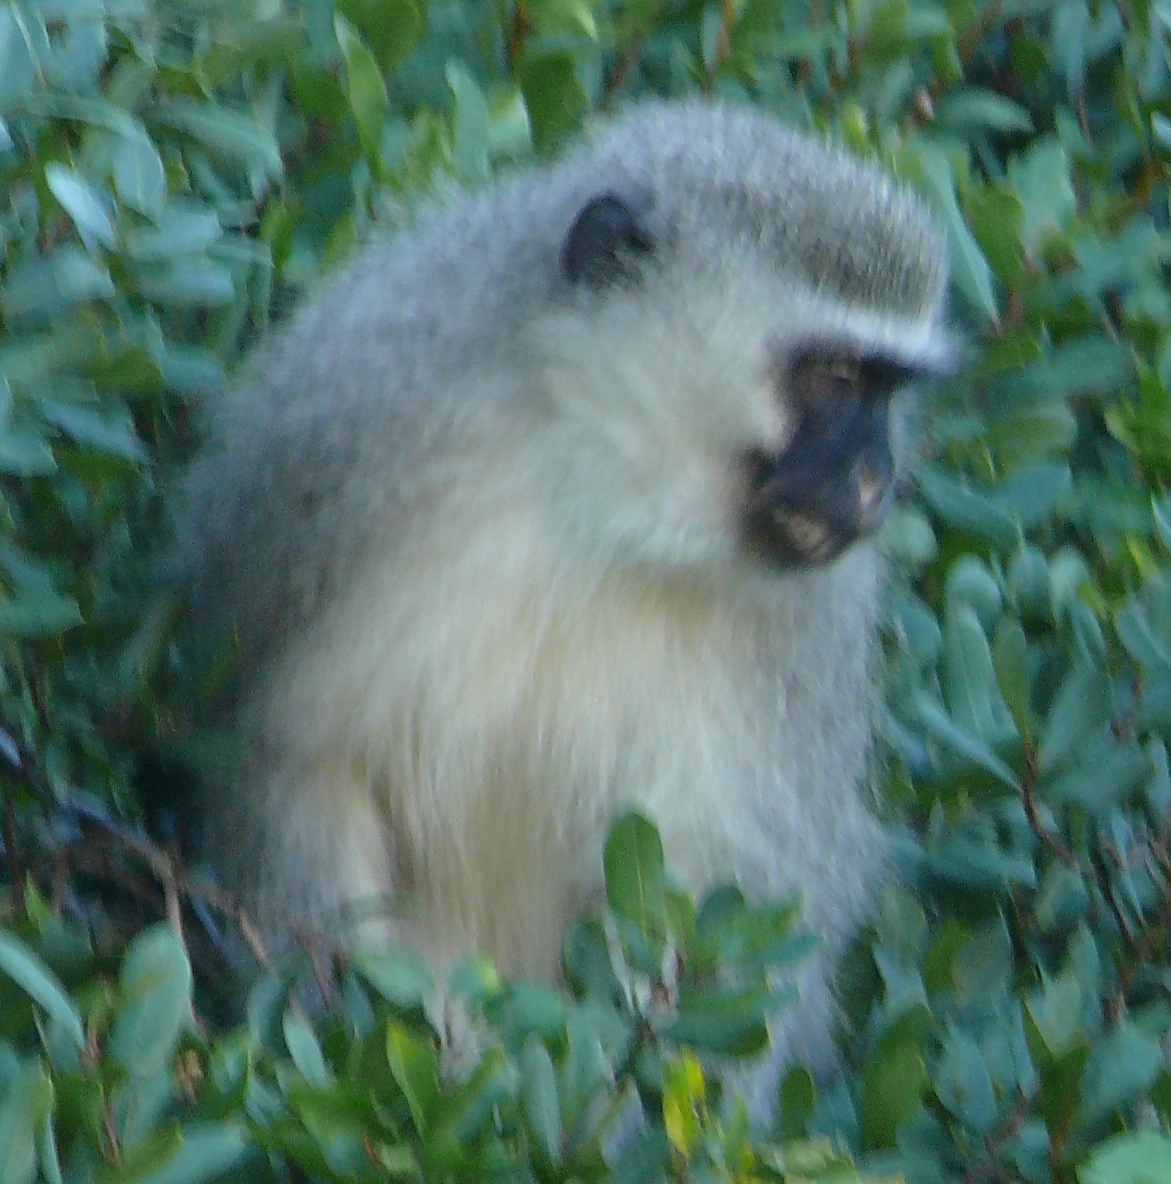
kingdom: Animalia
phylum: Chordata
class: Mammalia
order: Primates
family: Cercopithecidae
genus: Chlorocebus
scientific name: Chlorocebus pygerythrus
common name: Vervet monkey
